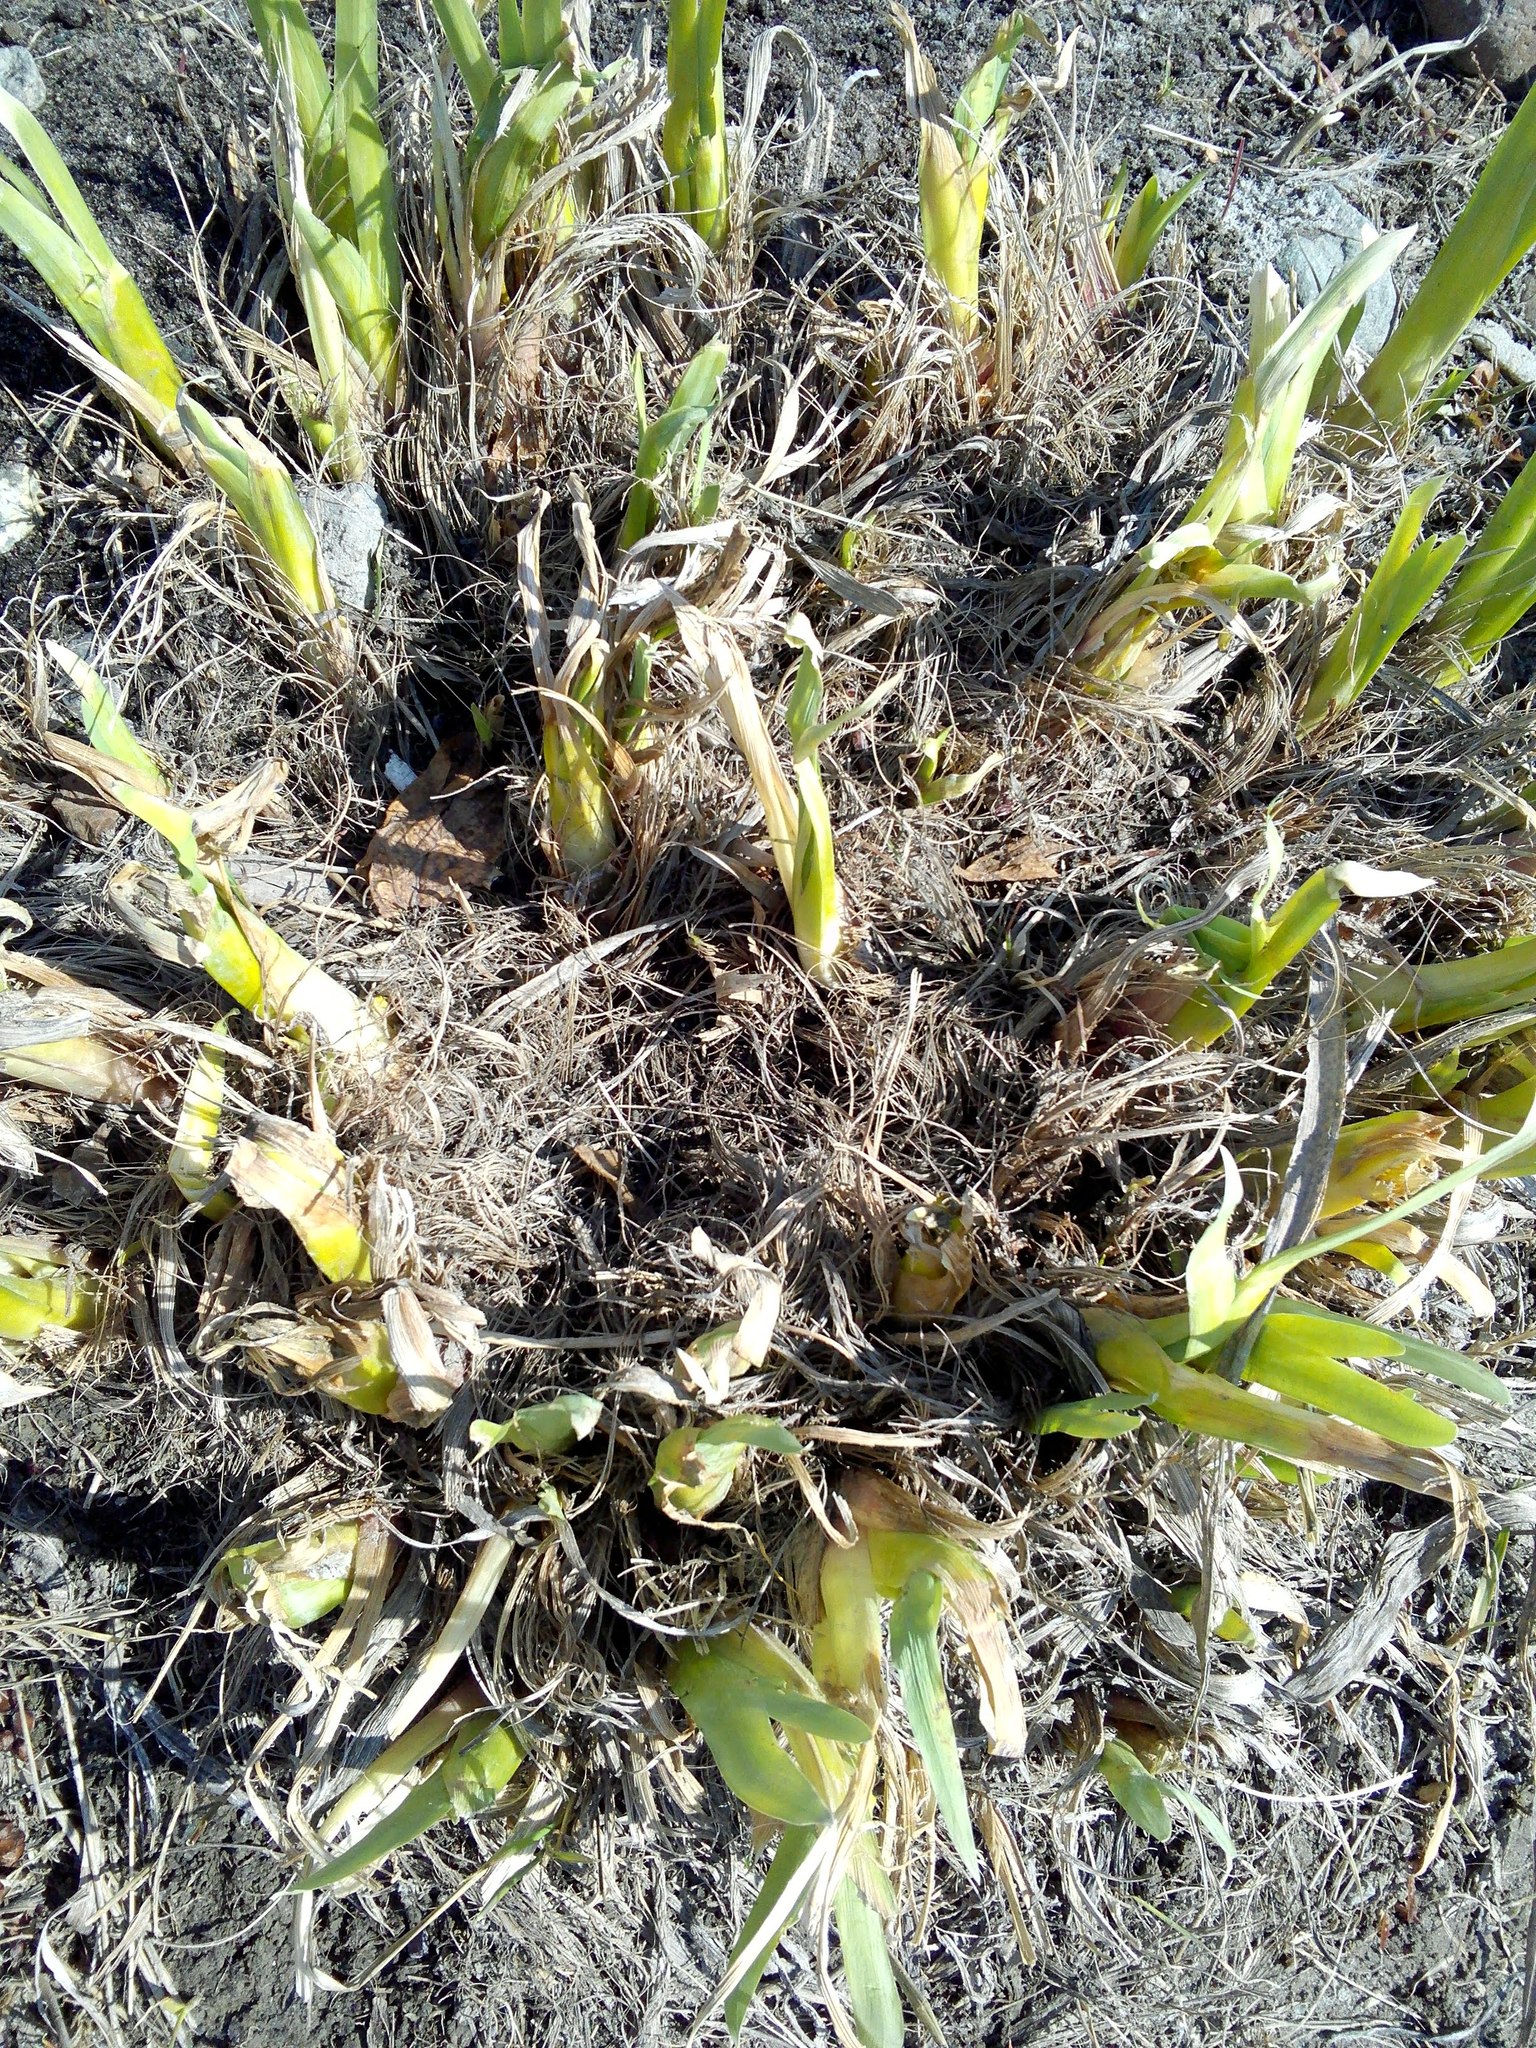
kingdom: Plantae
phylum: Tracheophyta
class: Liliopsida
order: Asparagales
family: Iridaceae
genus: Iris
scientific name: Iris pseudacorus
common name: Yellow flag
